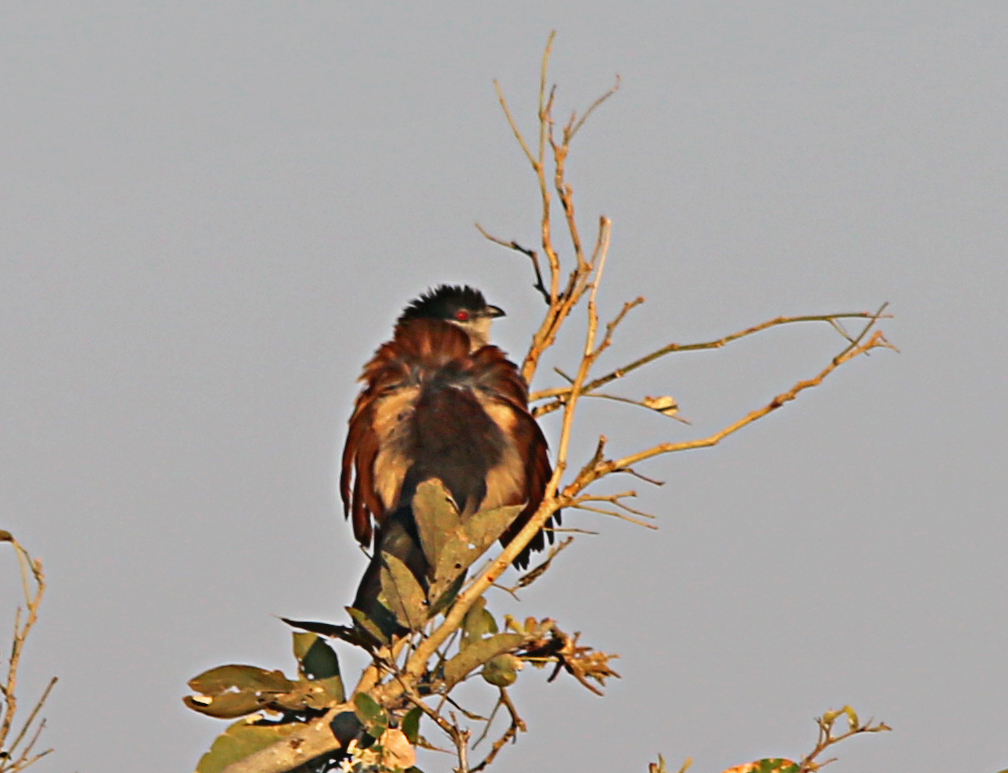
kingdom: Animalia
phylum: Chordata
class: Aves
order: Cuculiformes
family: Cuculidae
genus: Centropus
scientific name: Centropus senegalensis
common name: Senegal coucal
